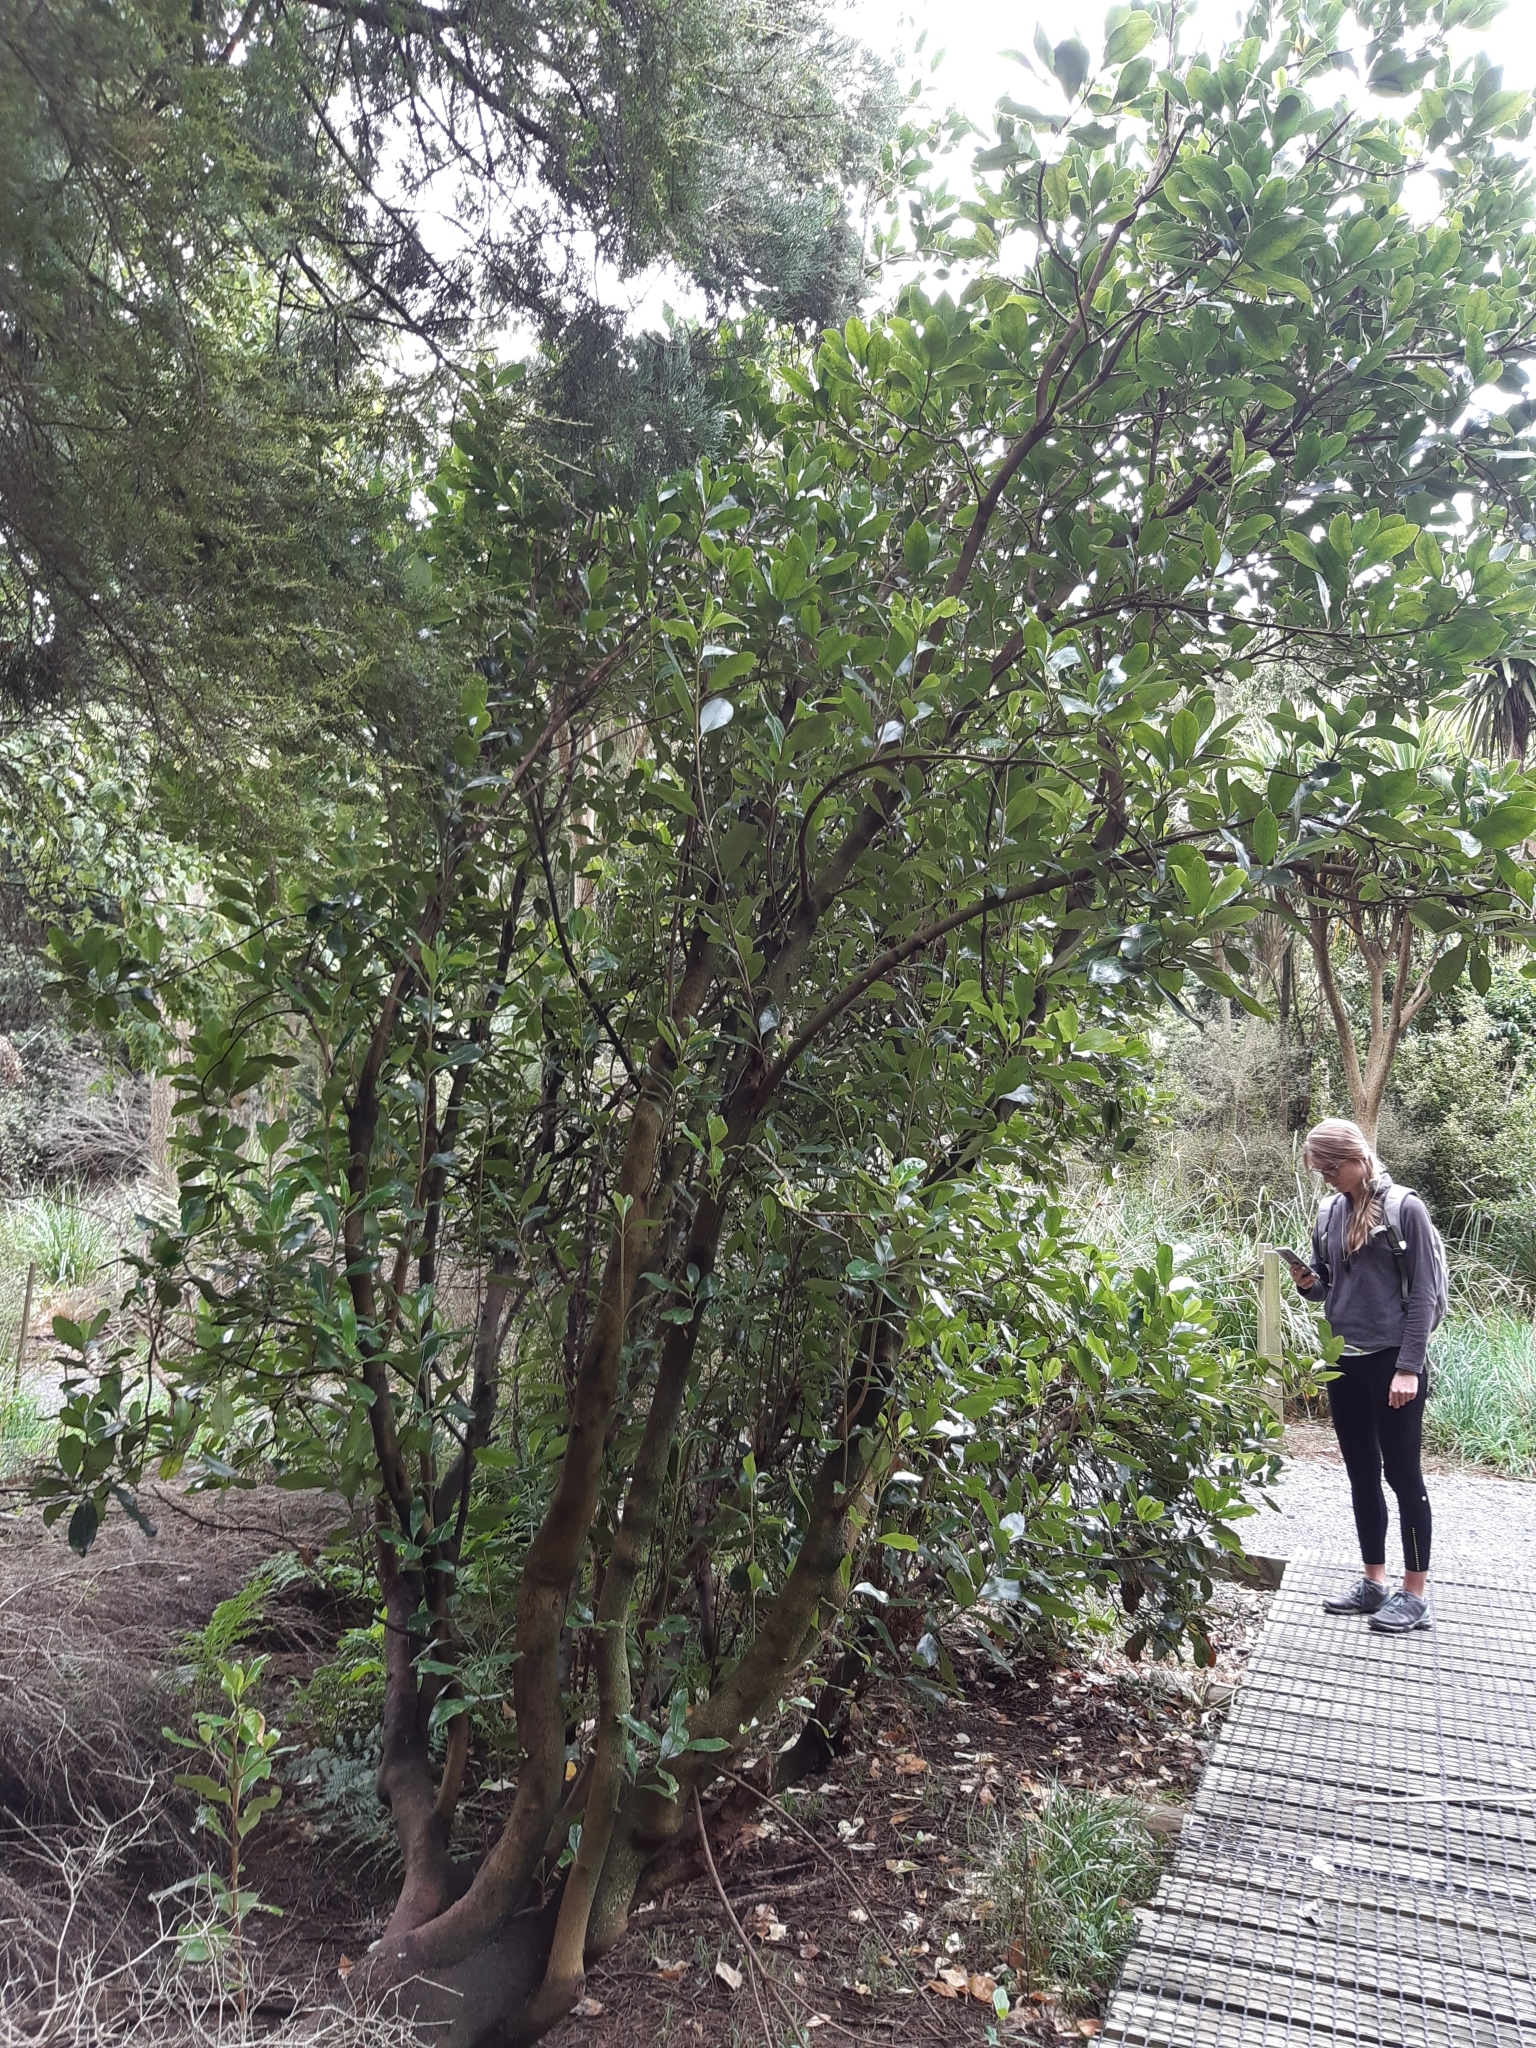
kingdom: Plantae
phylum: Tracheophyta
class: Magnoliopsida
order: Gentianales
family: Rubiaceae
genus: Coprosma
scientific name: Coprosma lucida
